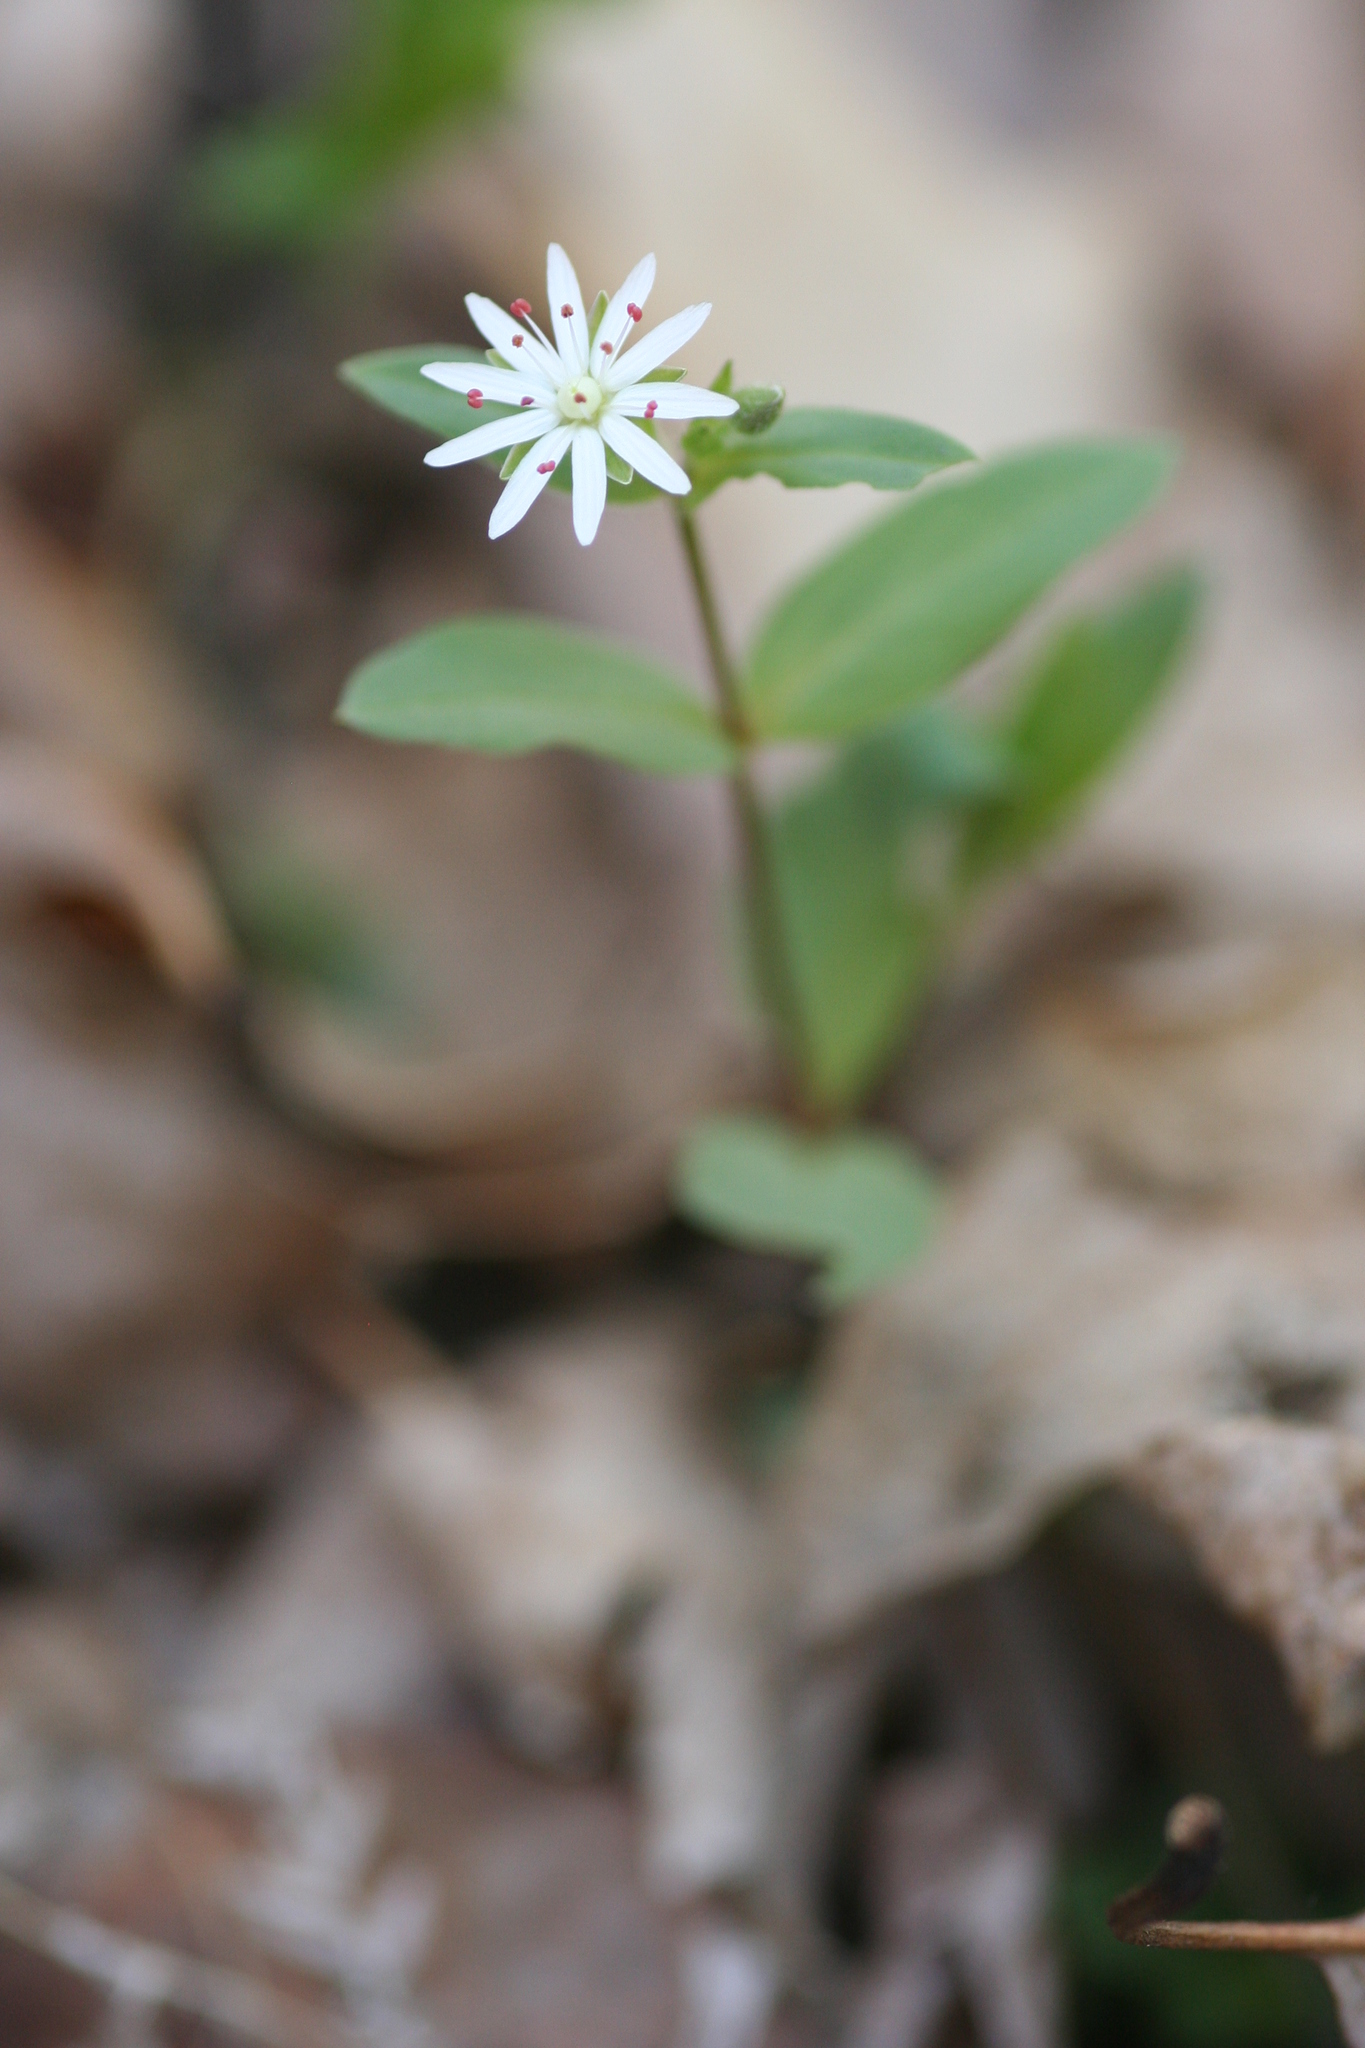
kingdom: Plantae
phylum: Tracheophyta
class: Magnoliopsida
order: Caryophyllales
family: Caryophyllaceae
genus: Stellaria
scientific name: Stellaria pubera
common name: Star chickweed
